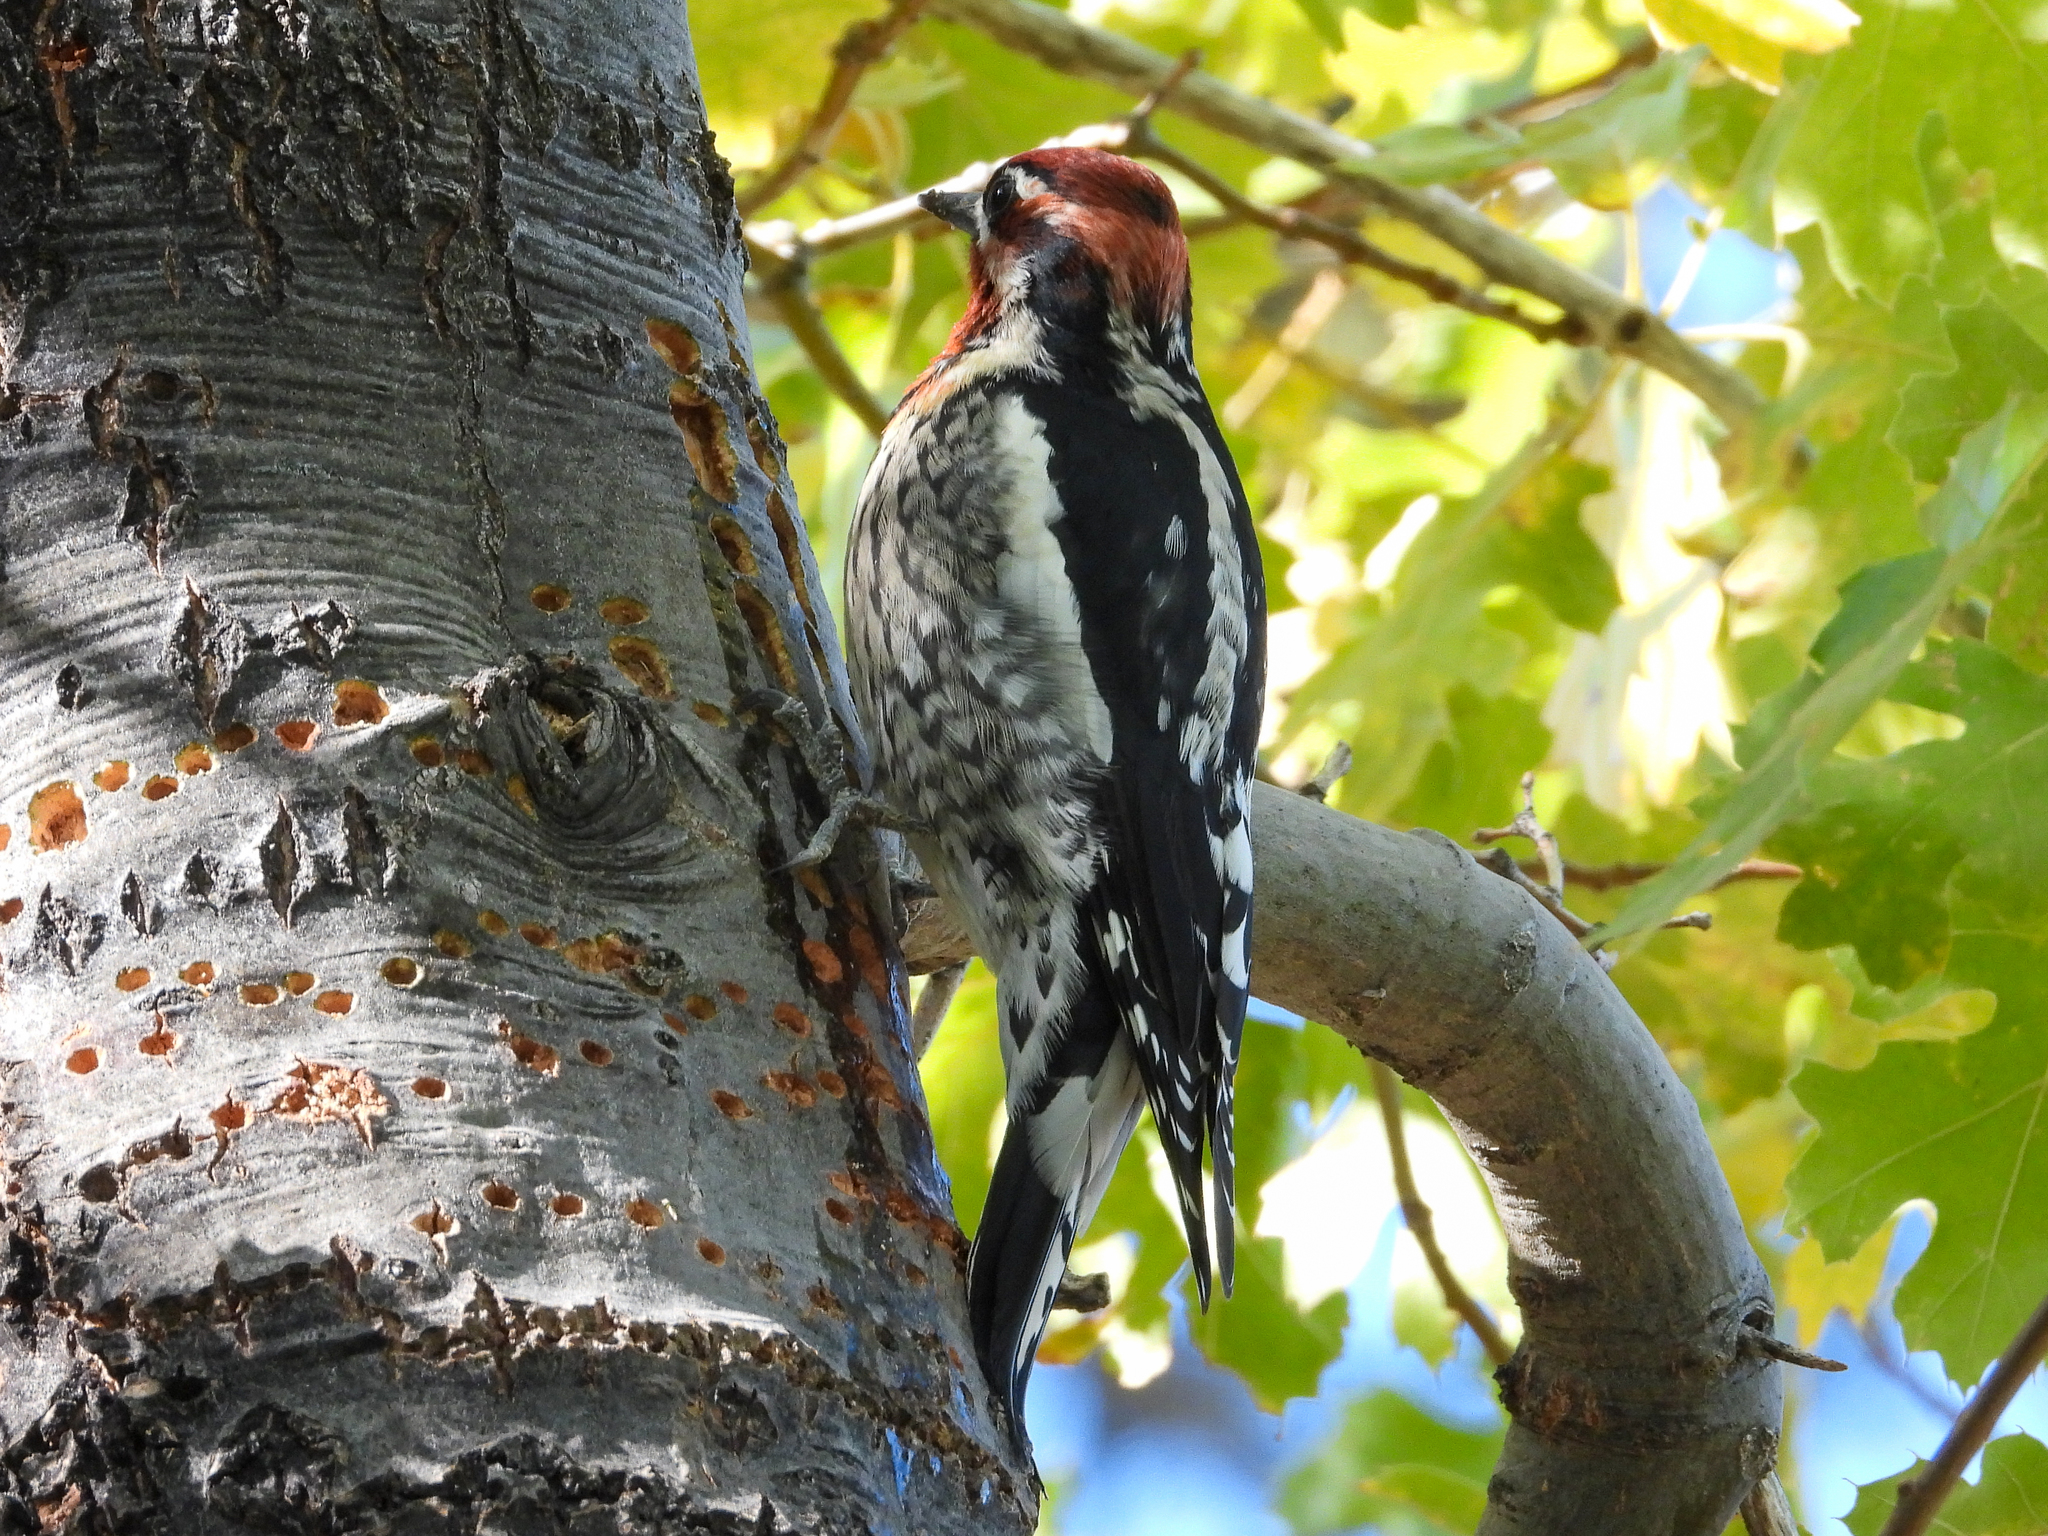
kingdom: Animalia
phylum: Chordata
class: Aves
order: Piciformes
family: Picidae
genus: Sphyrapicus
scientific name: Sphyrapicus
